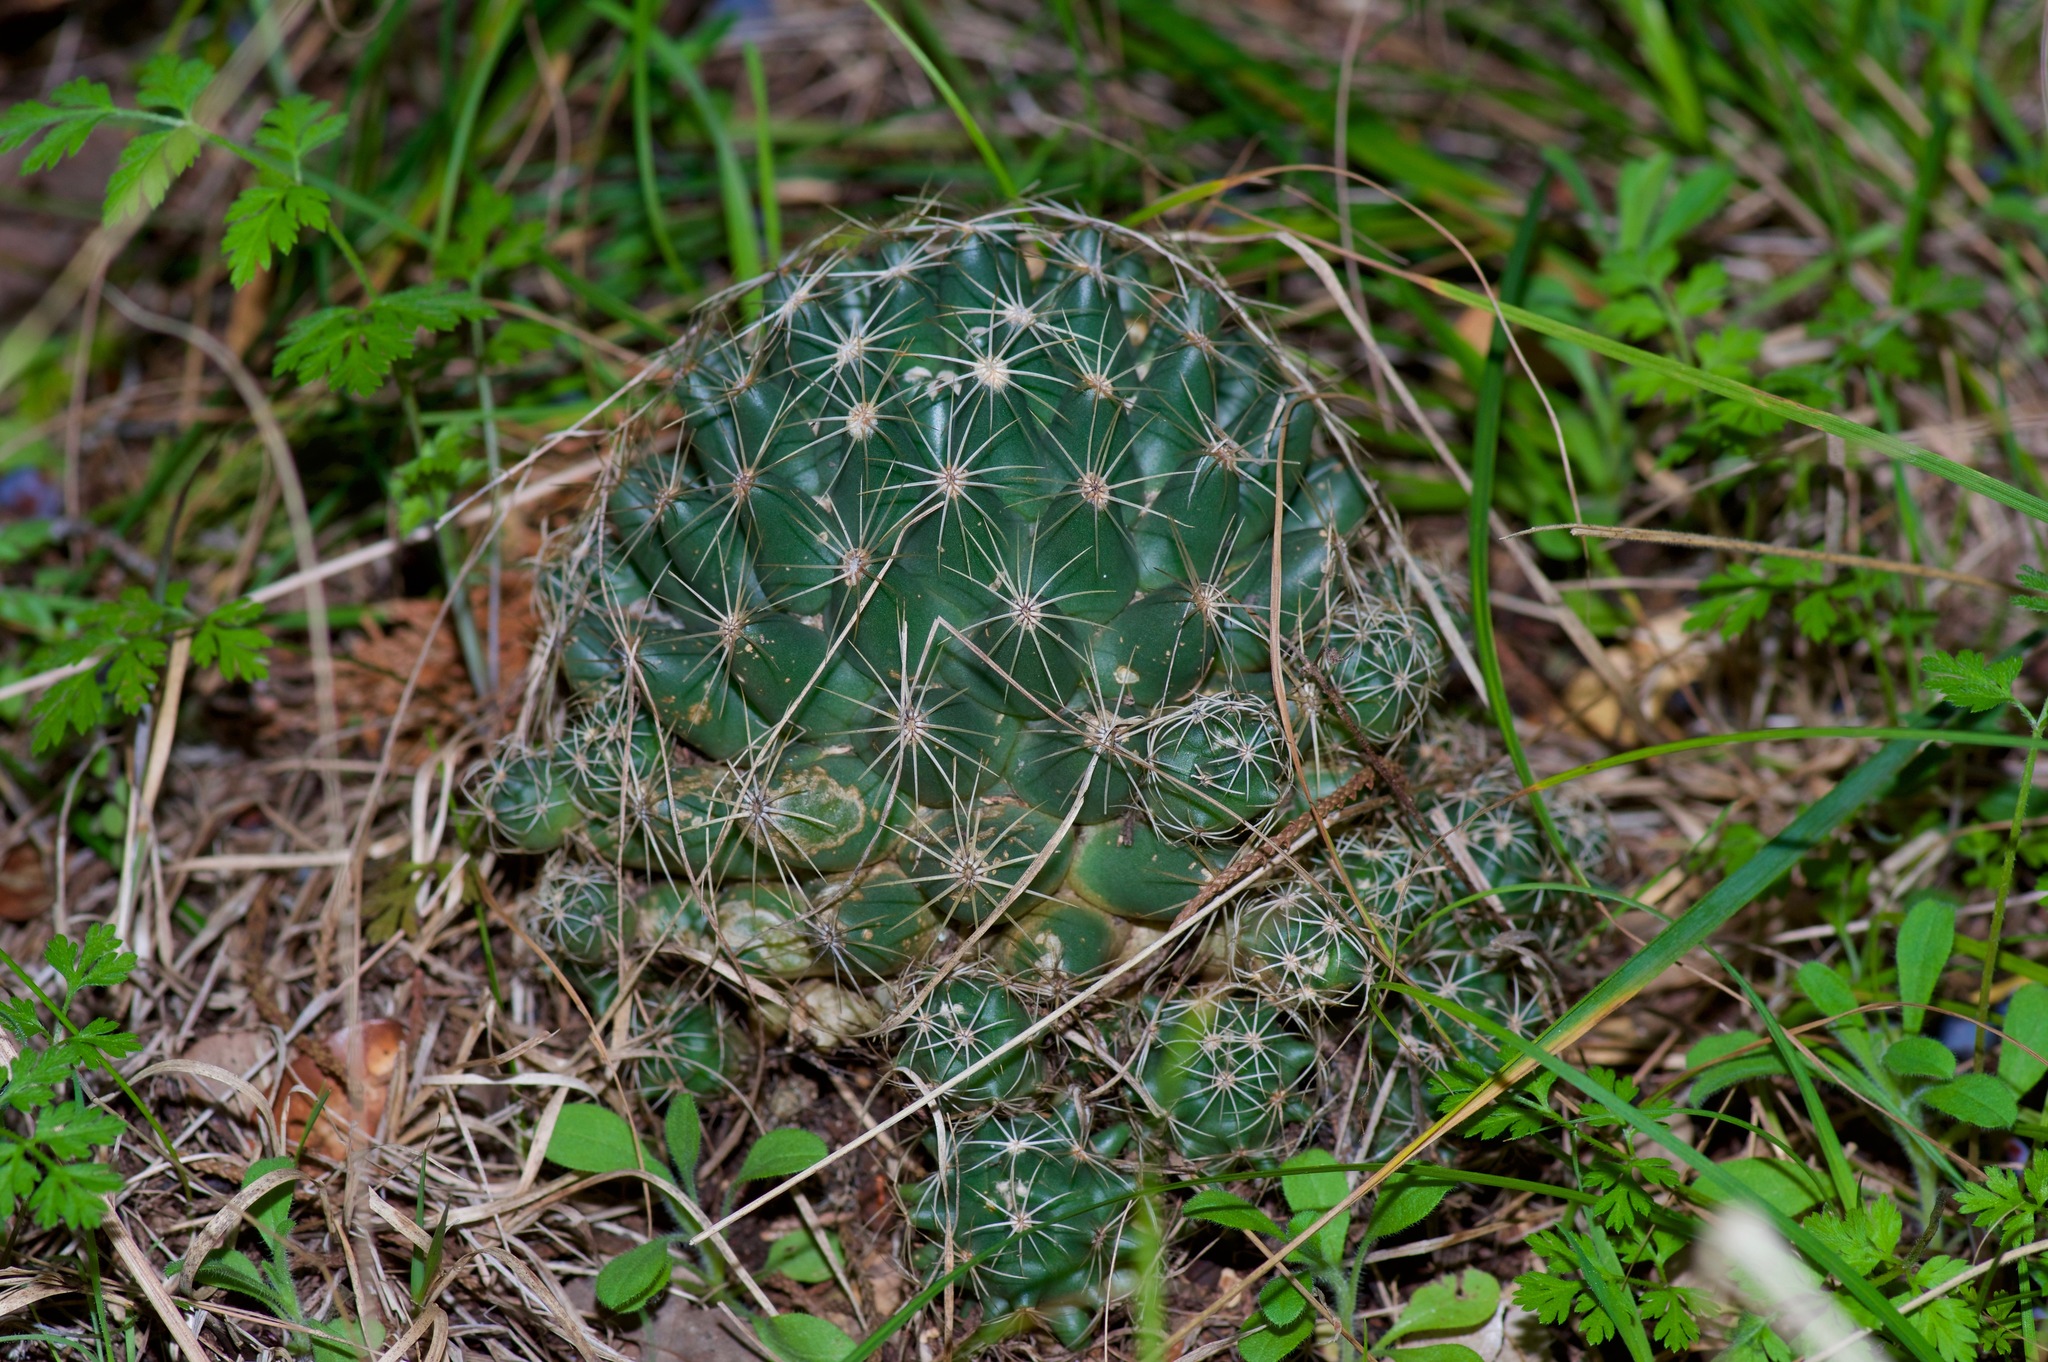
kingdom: Plantae
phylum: Tracheophyta
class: Magnoliopsida
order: Caryophyllales
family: Cactaceae
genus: Coryphantha
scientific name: Coryphantha sulcata
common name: Finger cactus
